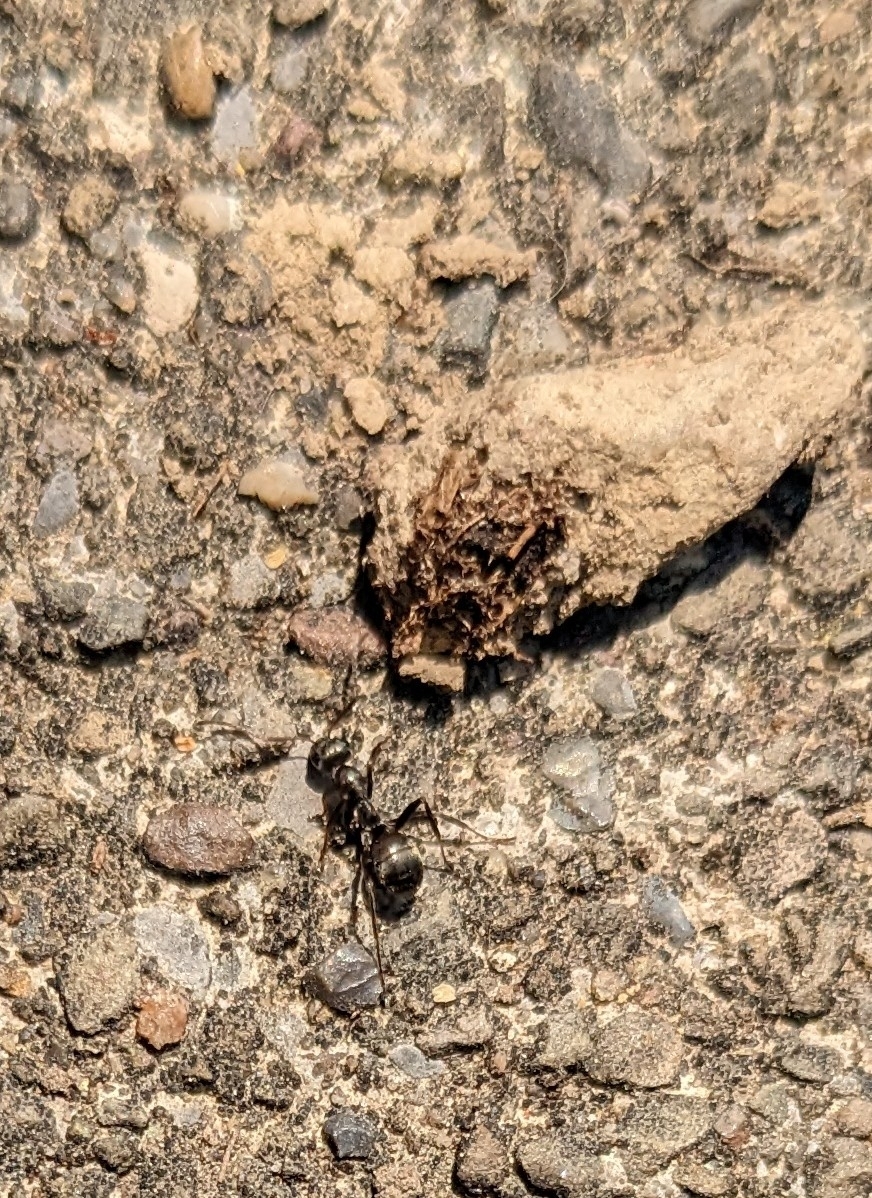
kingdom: Animalia
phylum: Arthropoda
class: Insecta
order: Hymenoptera
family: Formicidae
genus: Formica
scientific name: Formica
